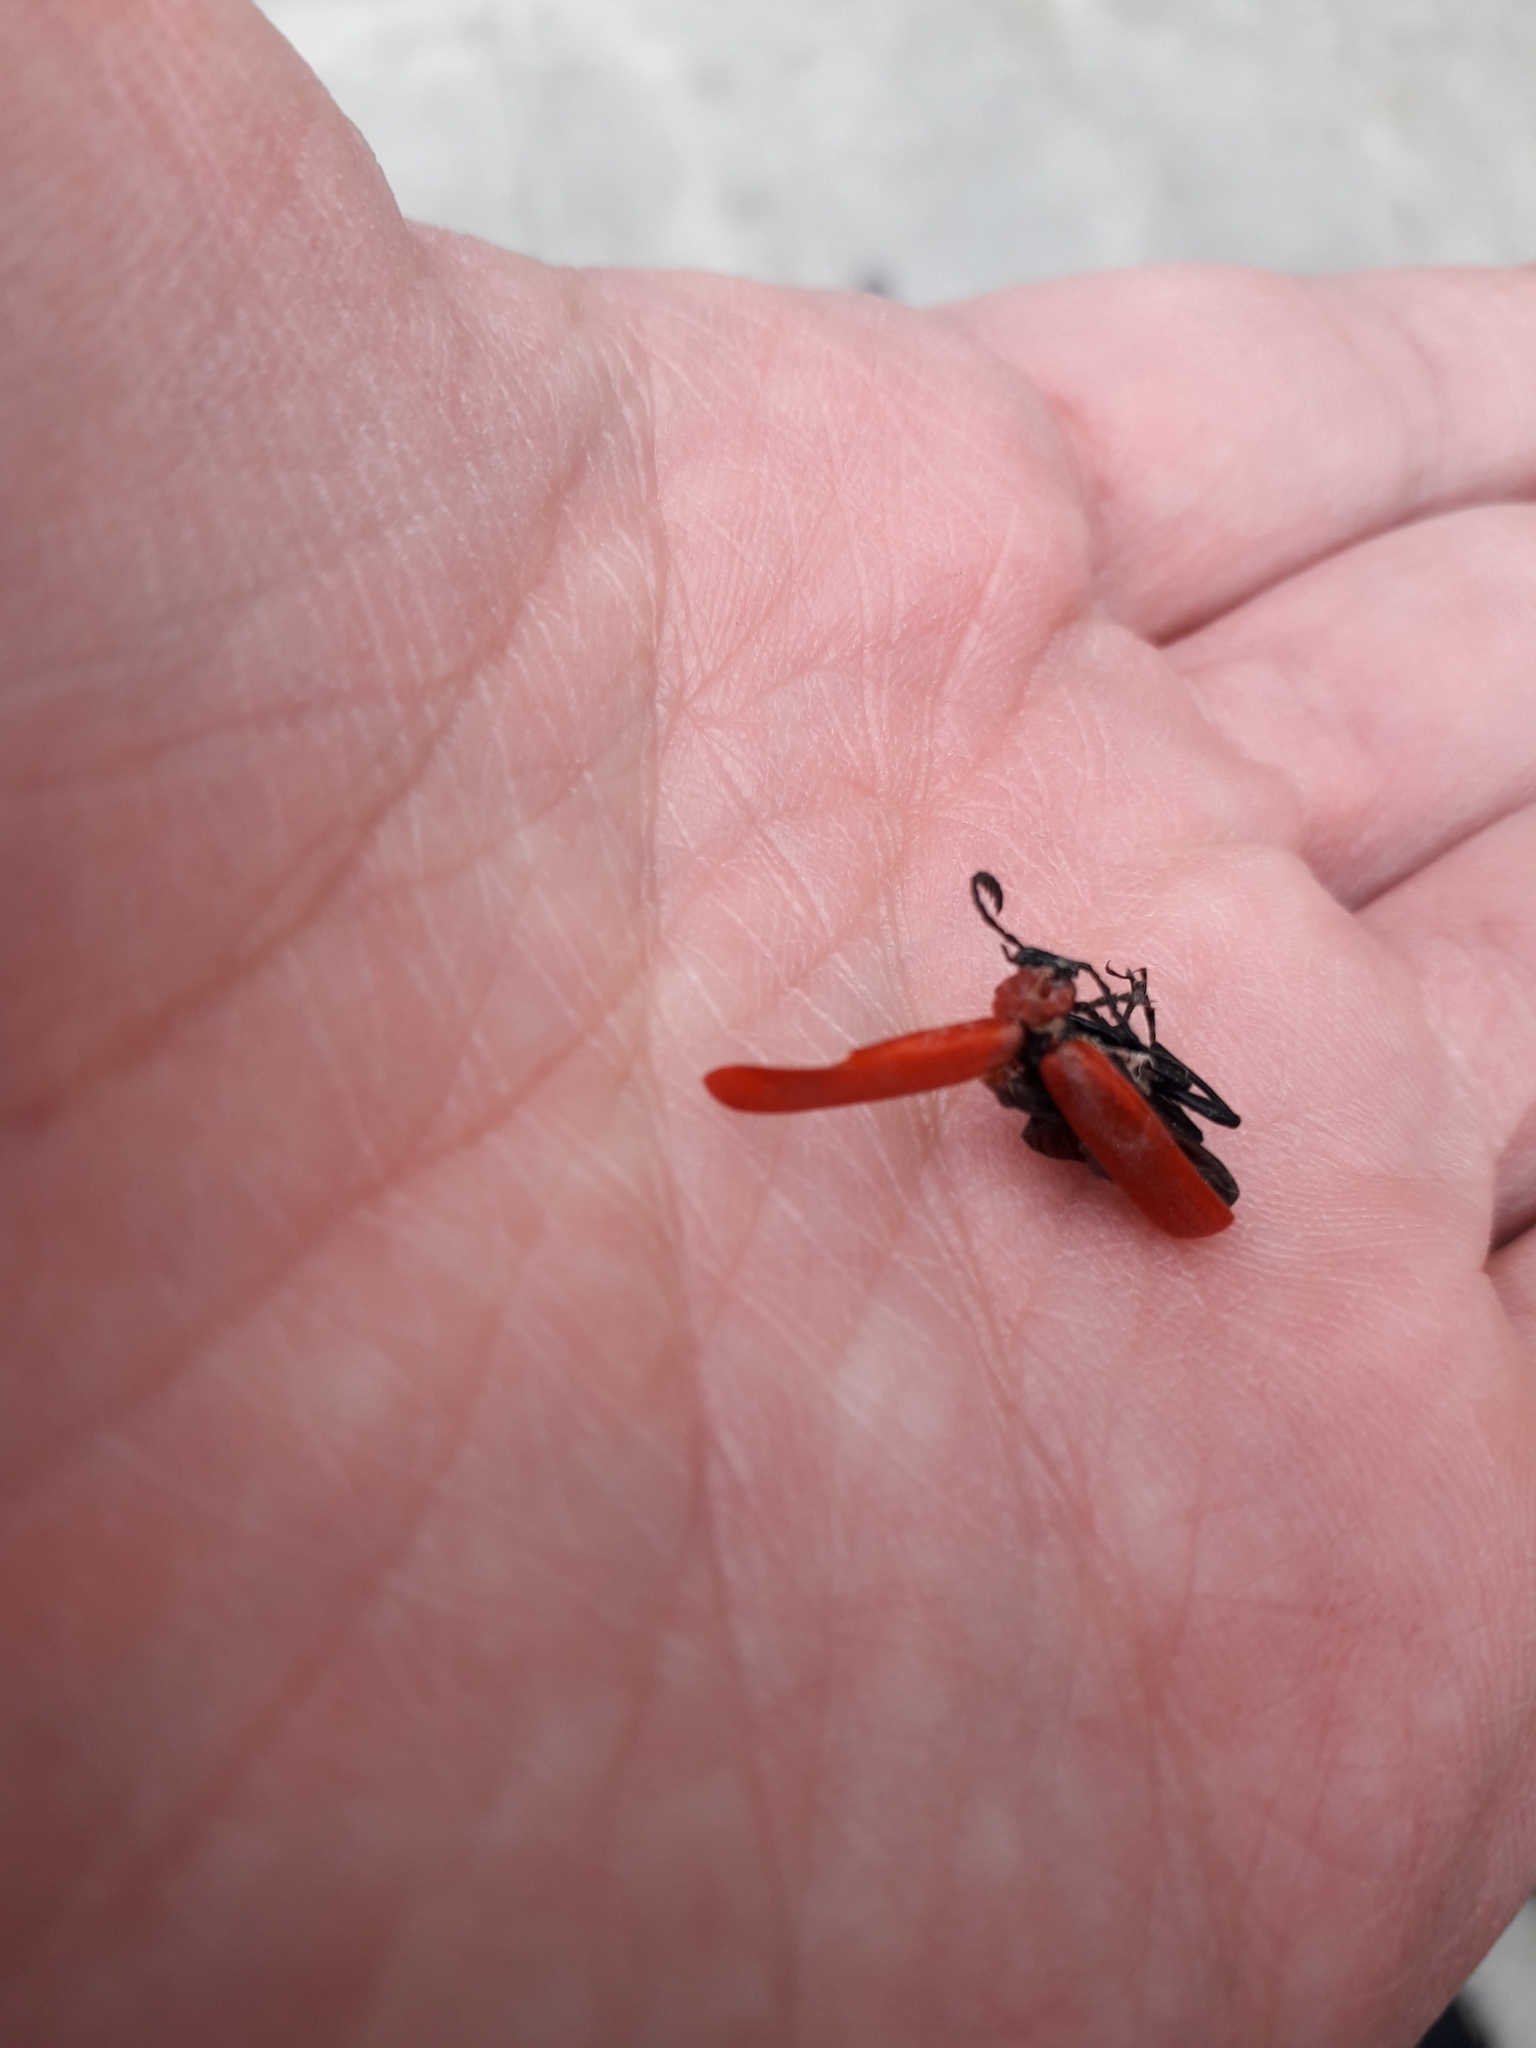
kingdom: Animalia
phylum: Arthropoda
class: Insecta
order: Coleoptera
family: Pyrochroidae
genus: Pyrochroa
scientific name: Pyrochroa coccinea
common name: Black-headed cardinal beetle
